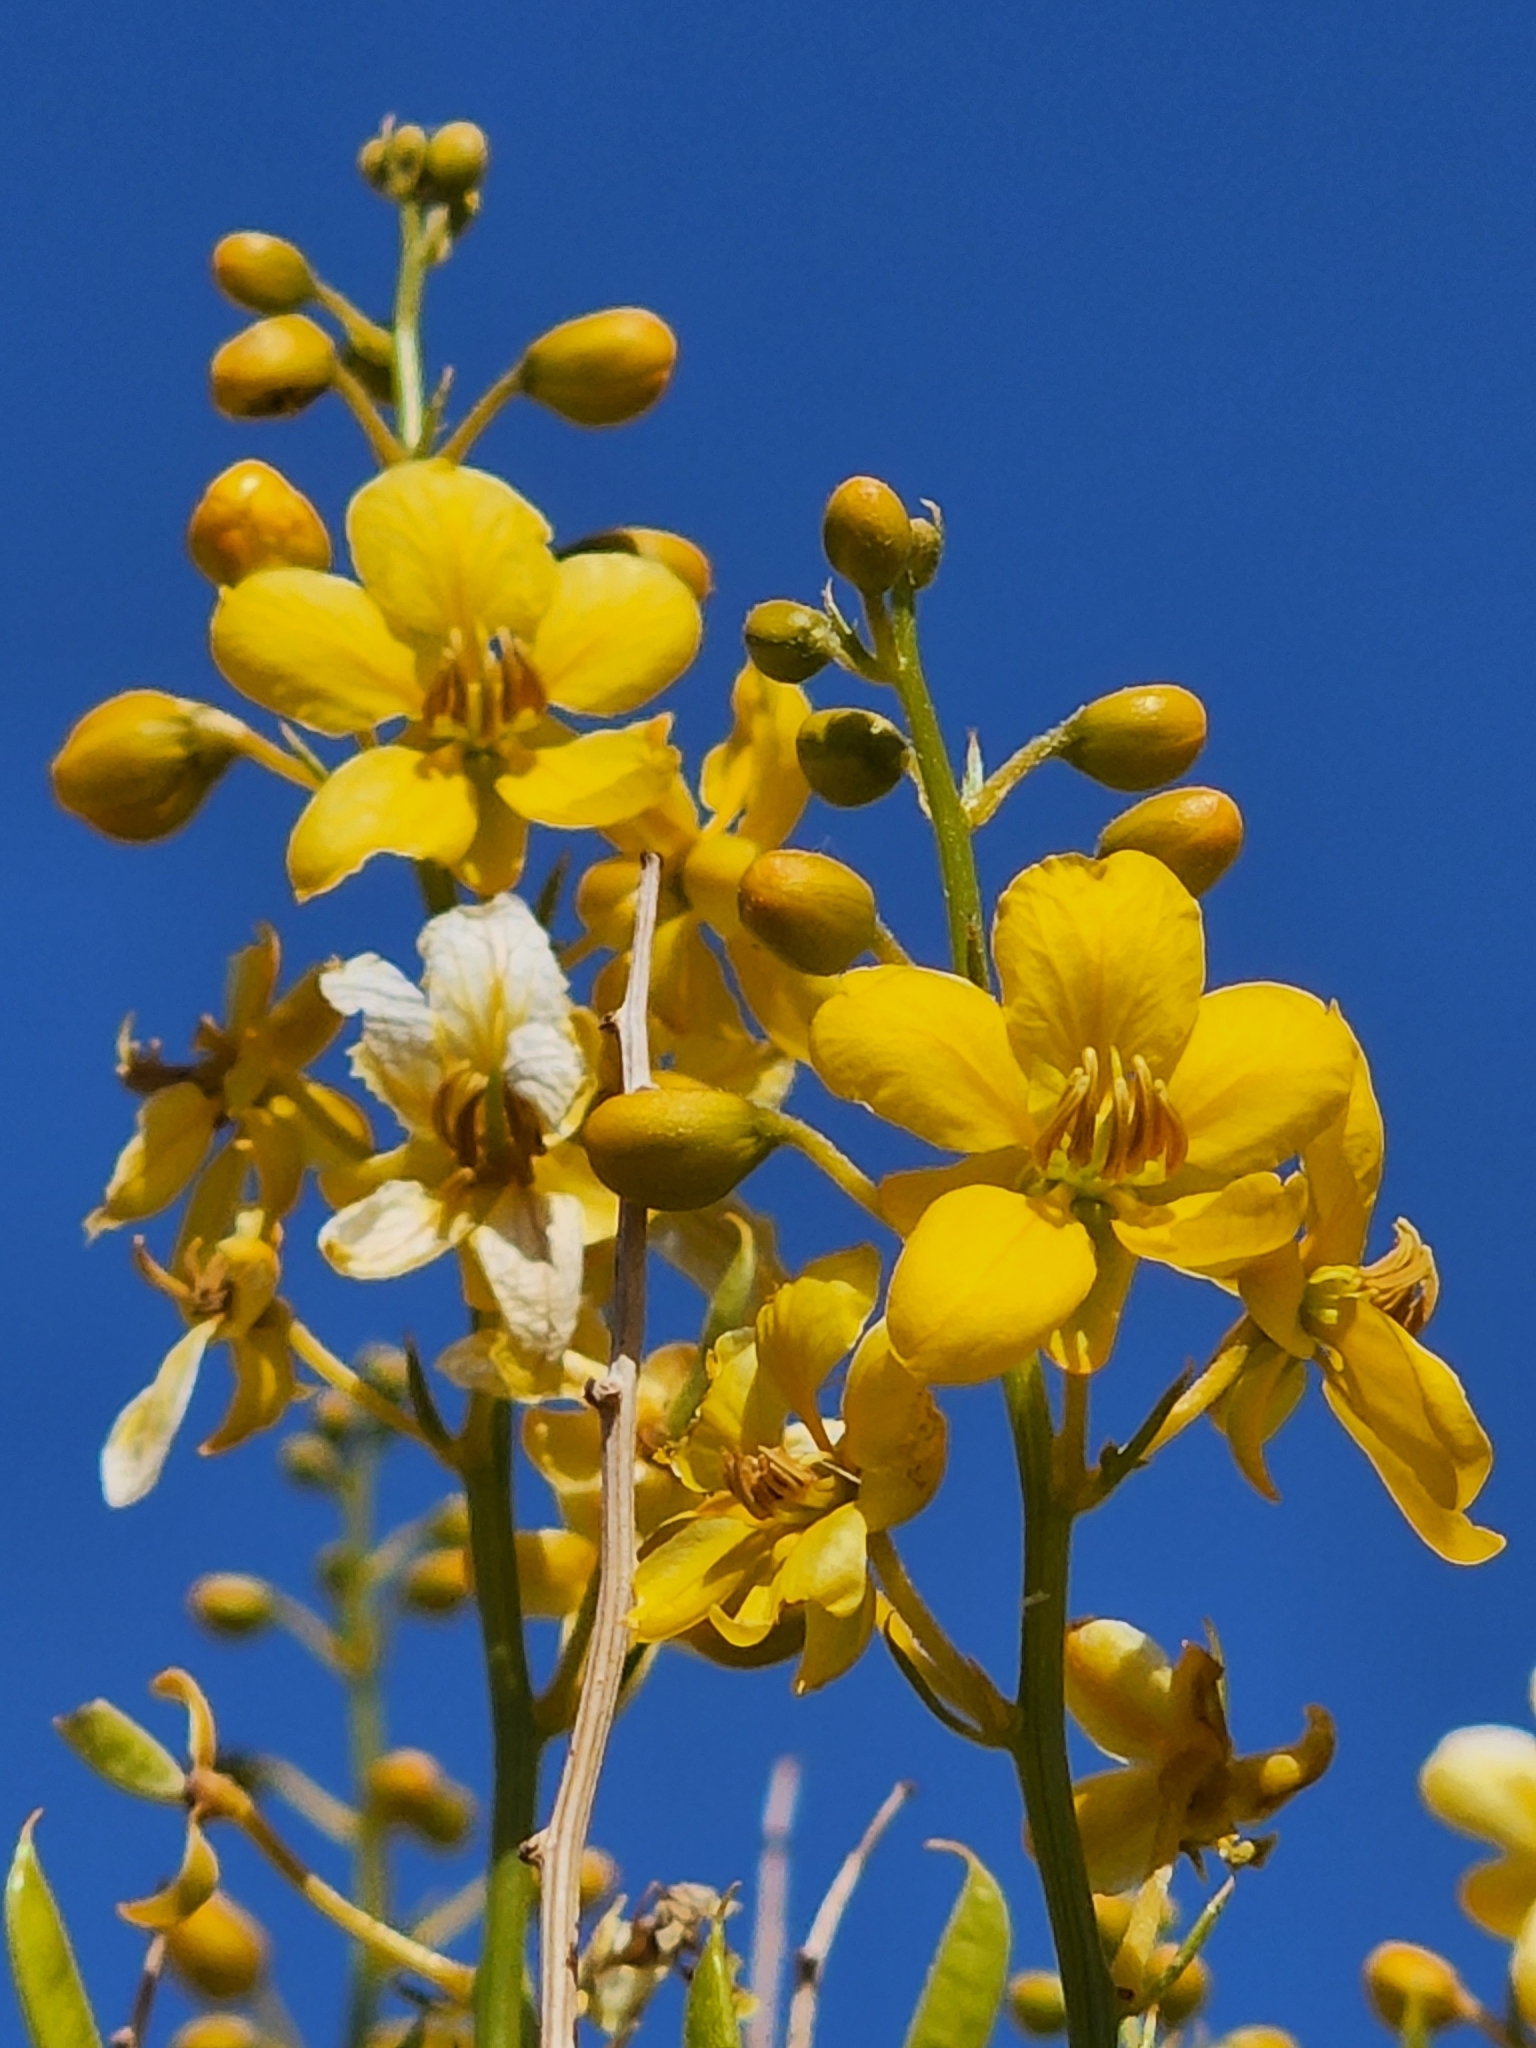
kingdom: Plantae
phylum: Tracheophyta
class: Magnoliopsida
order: Fabales
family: Fabaceae
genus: Senna
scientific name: Senna armata
